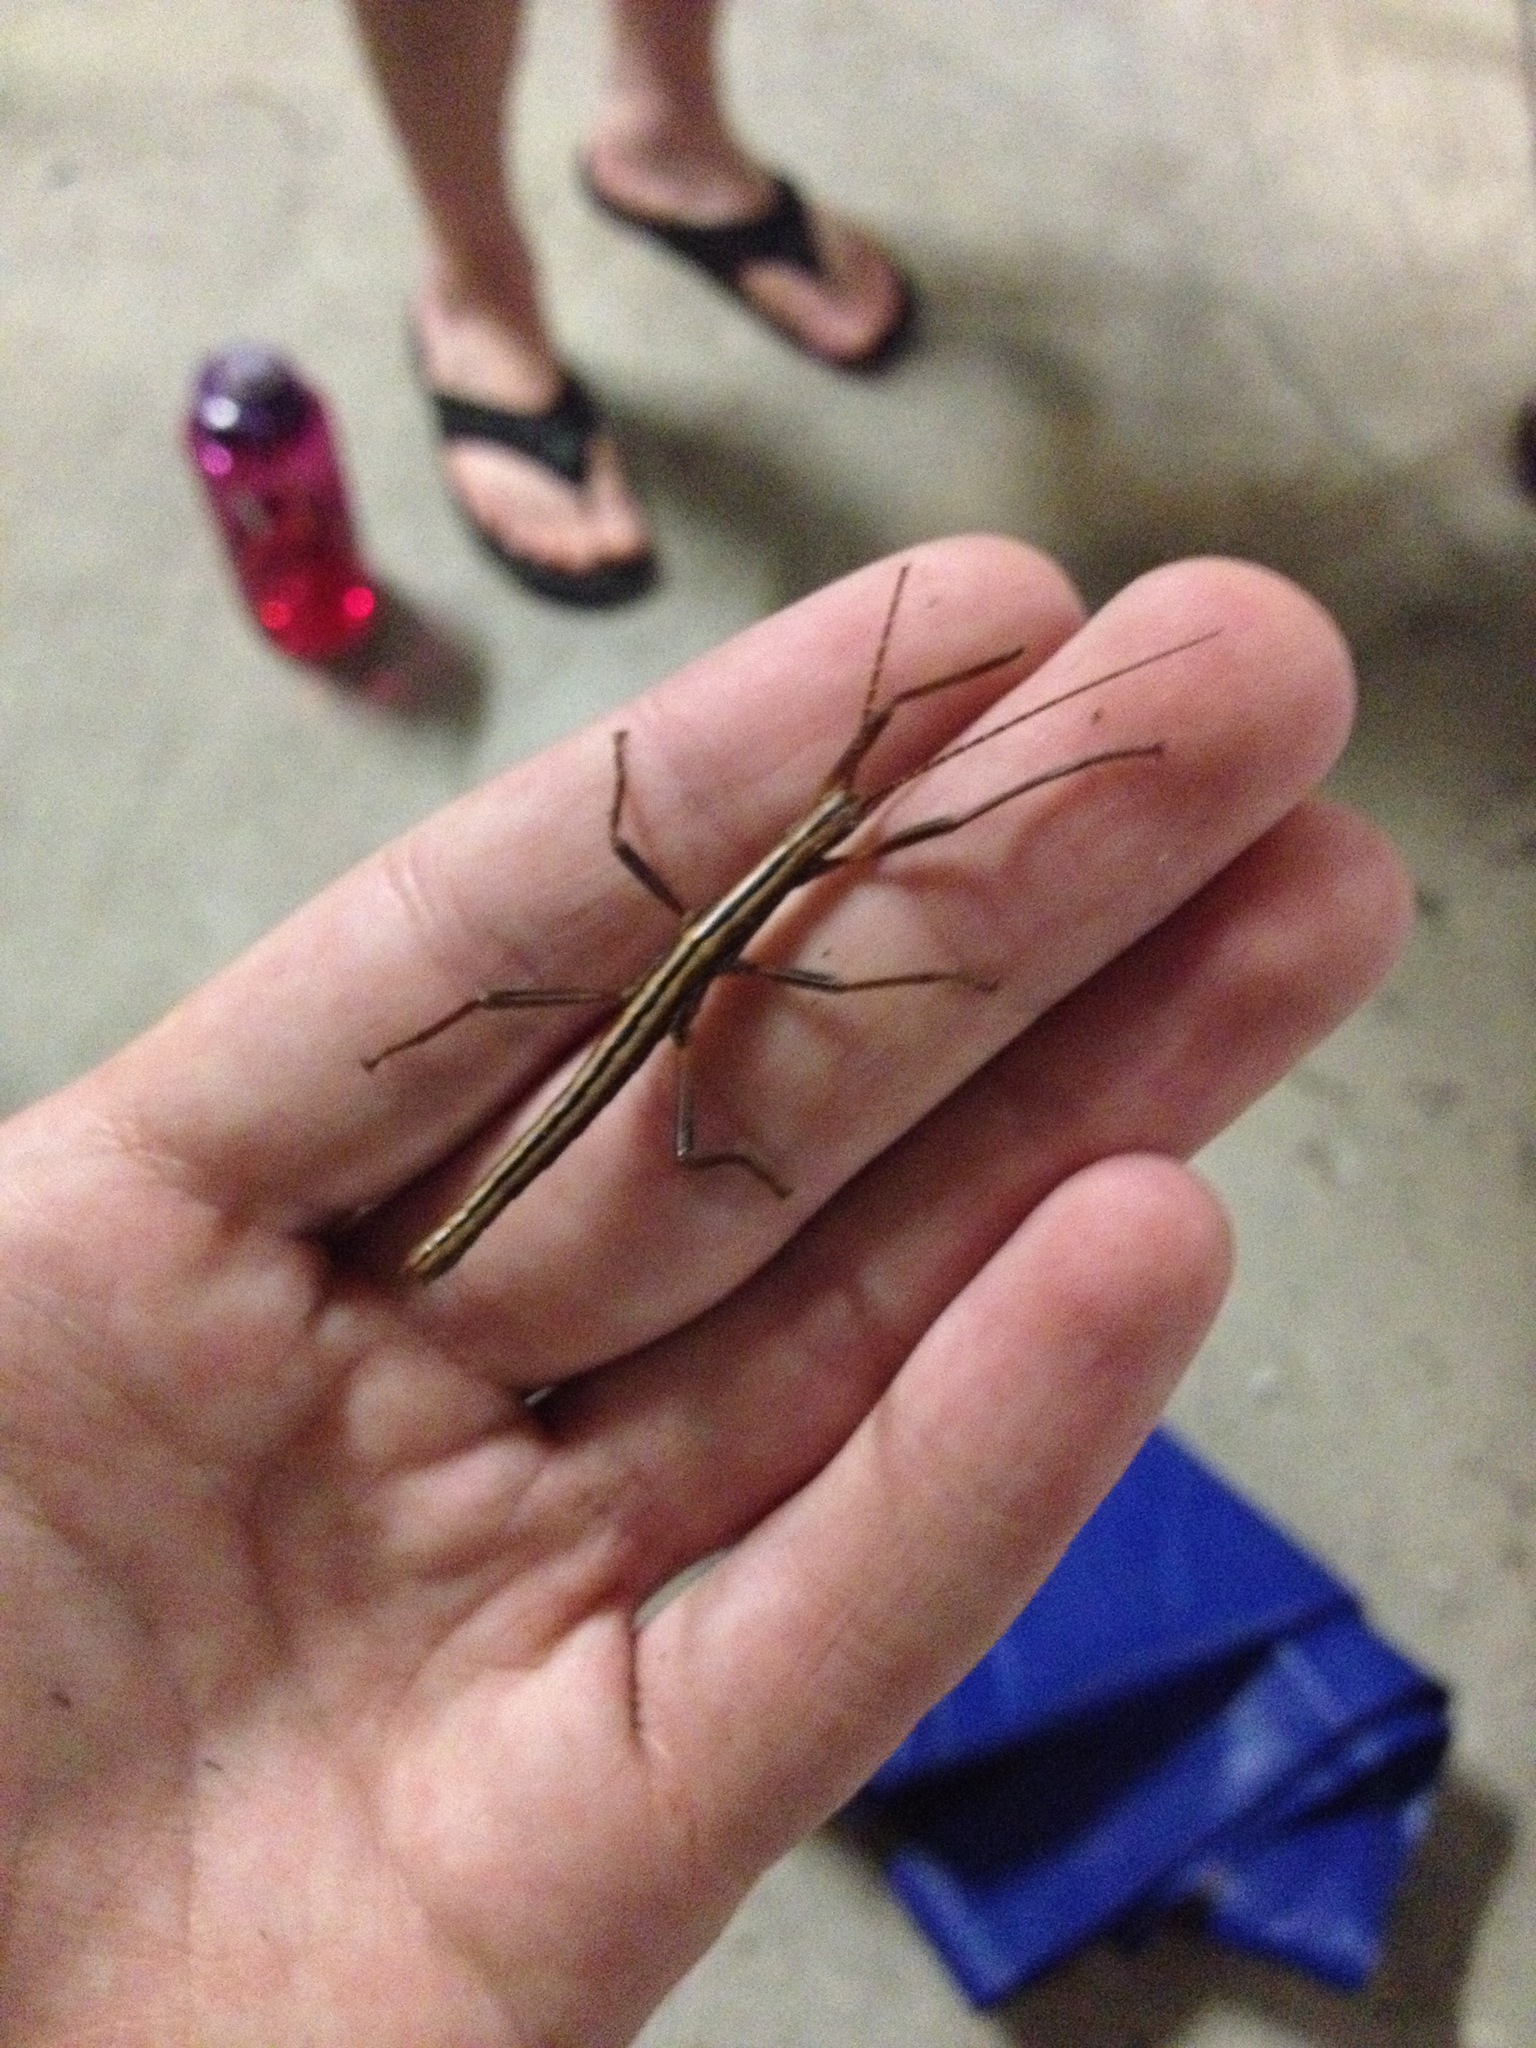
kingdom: Animalia
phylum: Arthropoda
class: Insecta
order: Phasmida
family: Pseudophasmatidae
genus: Anisomorpha
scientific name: Anisomorpha buprestoides
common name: Florida stick insect
